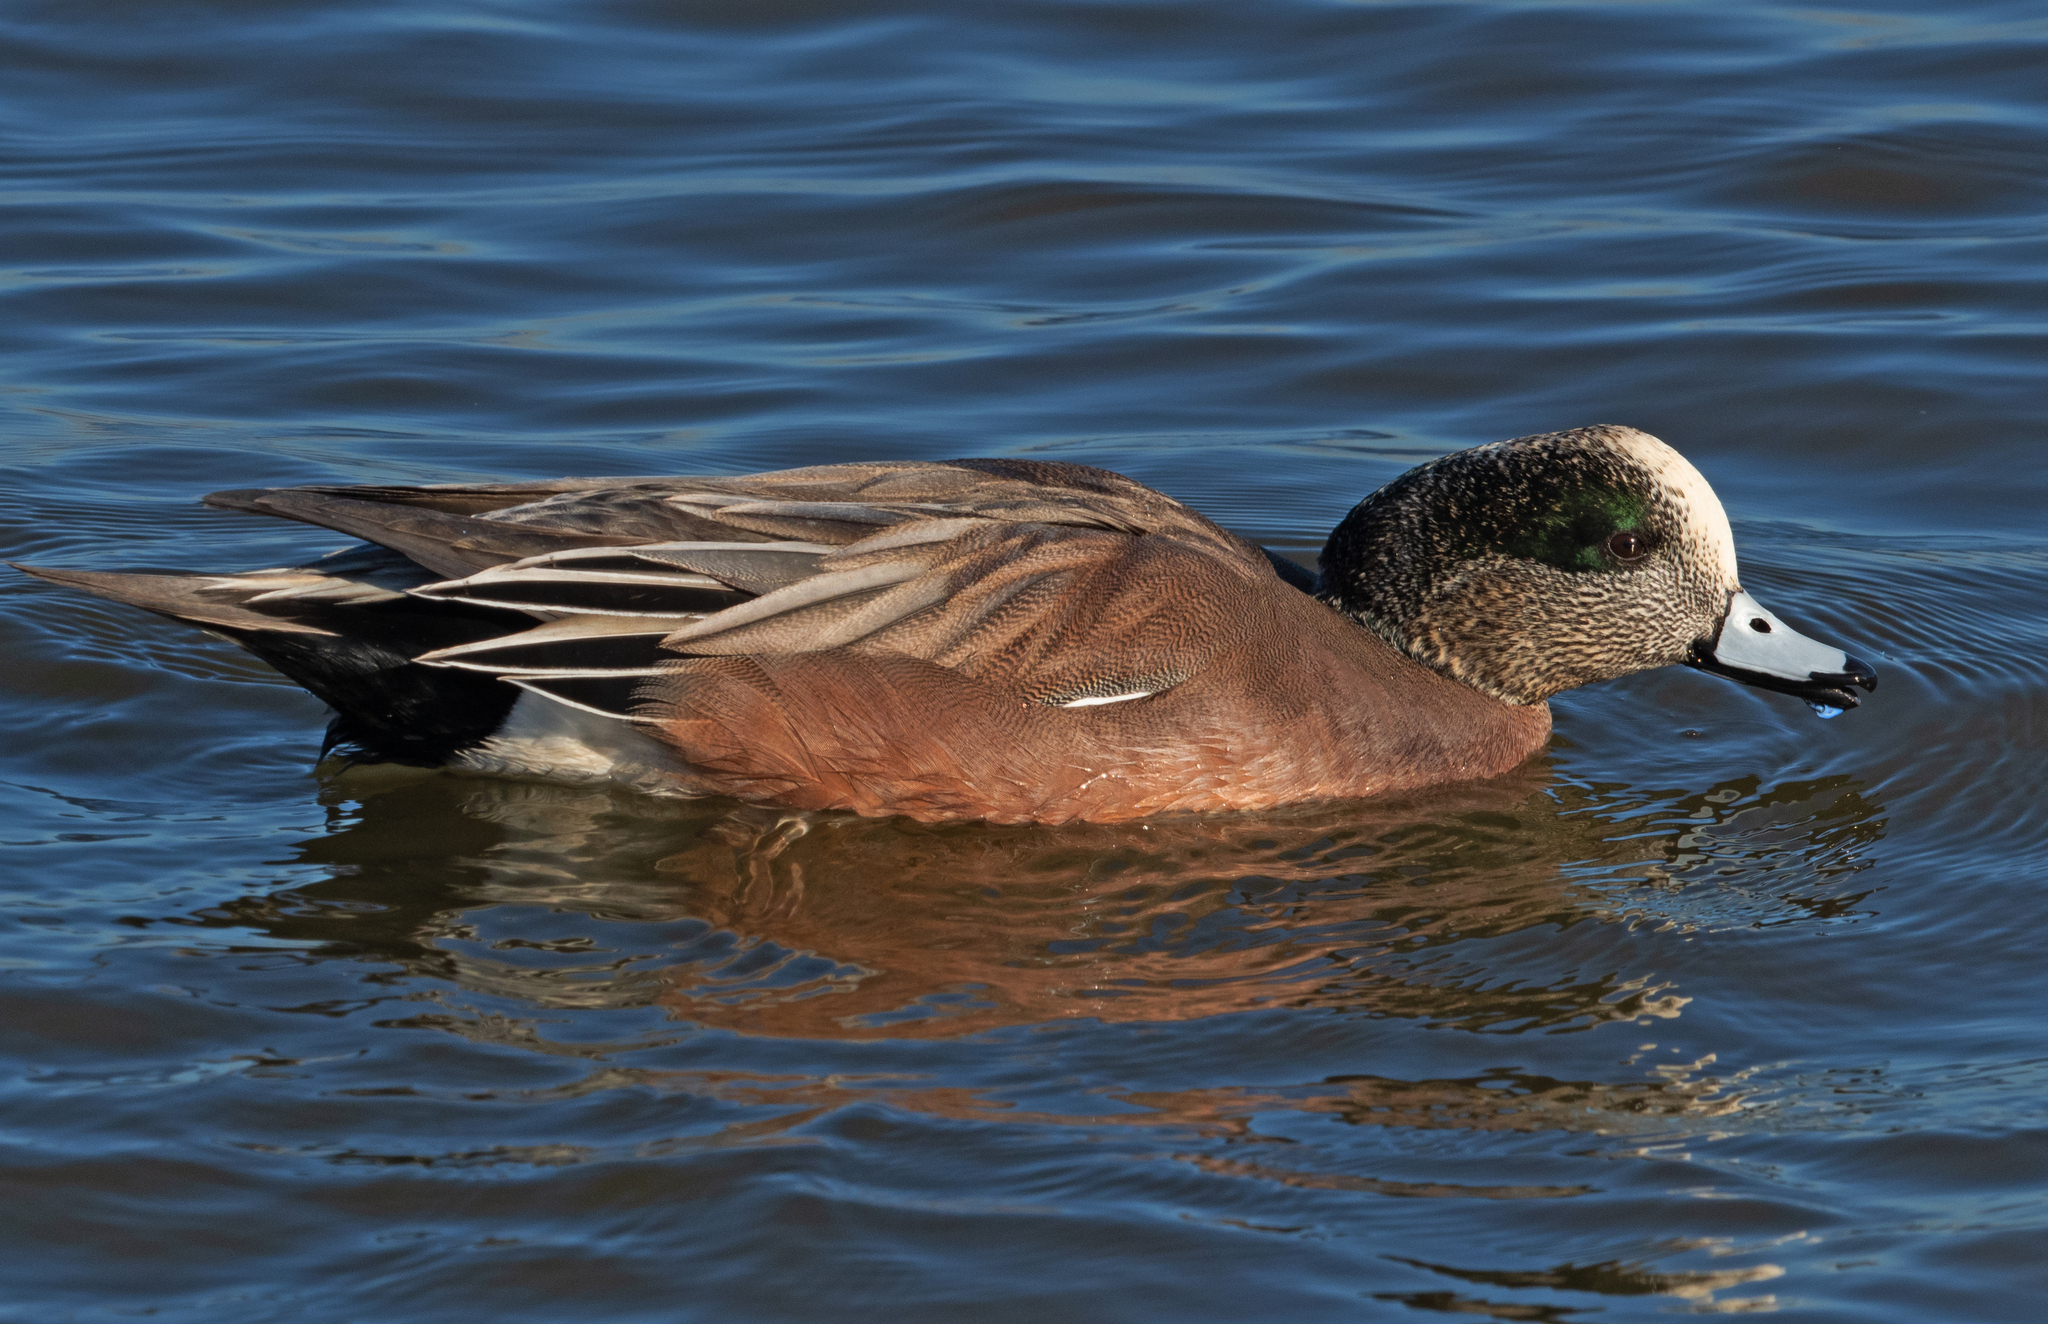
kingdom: Animalia
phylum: Chordata
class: Aves
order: Anseriformes
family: Anatidae
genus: Mareca
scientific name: Mareca americana
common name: American wigeon
